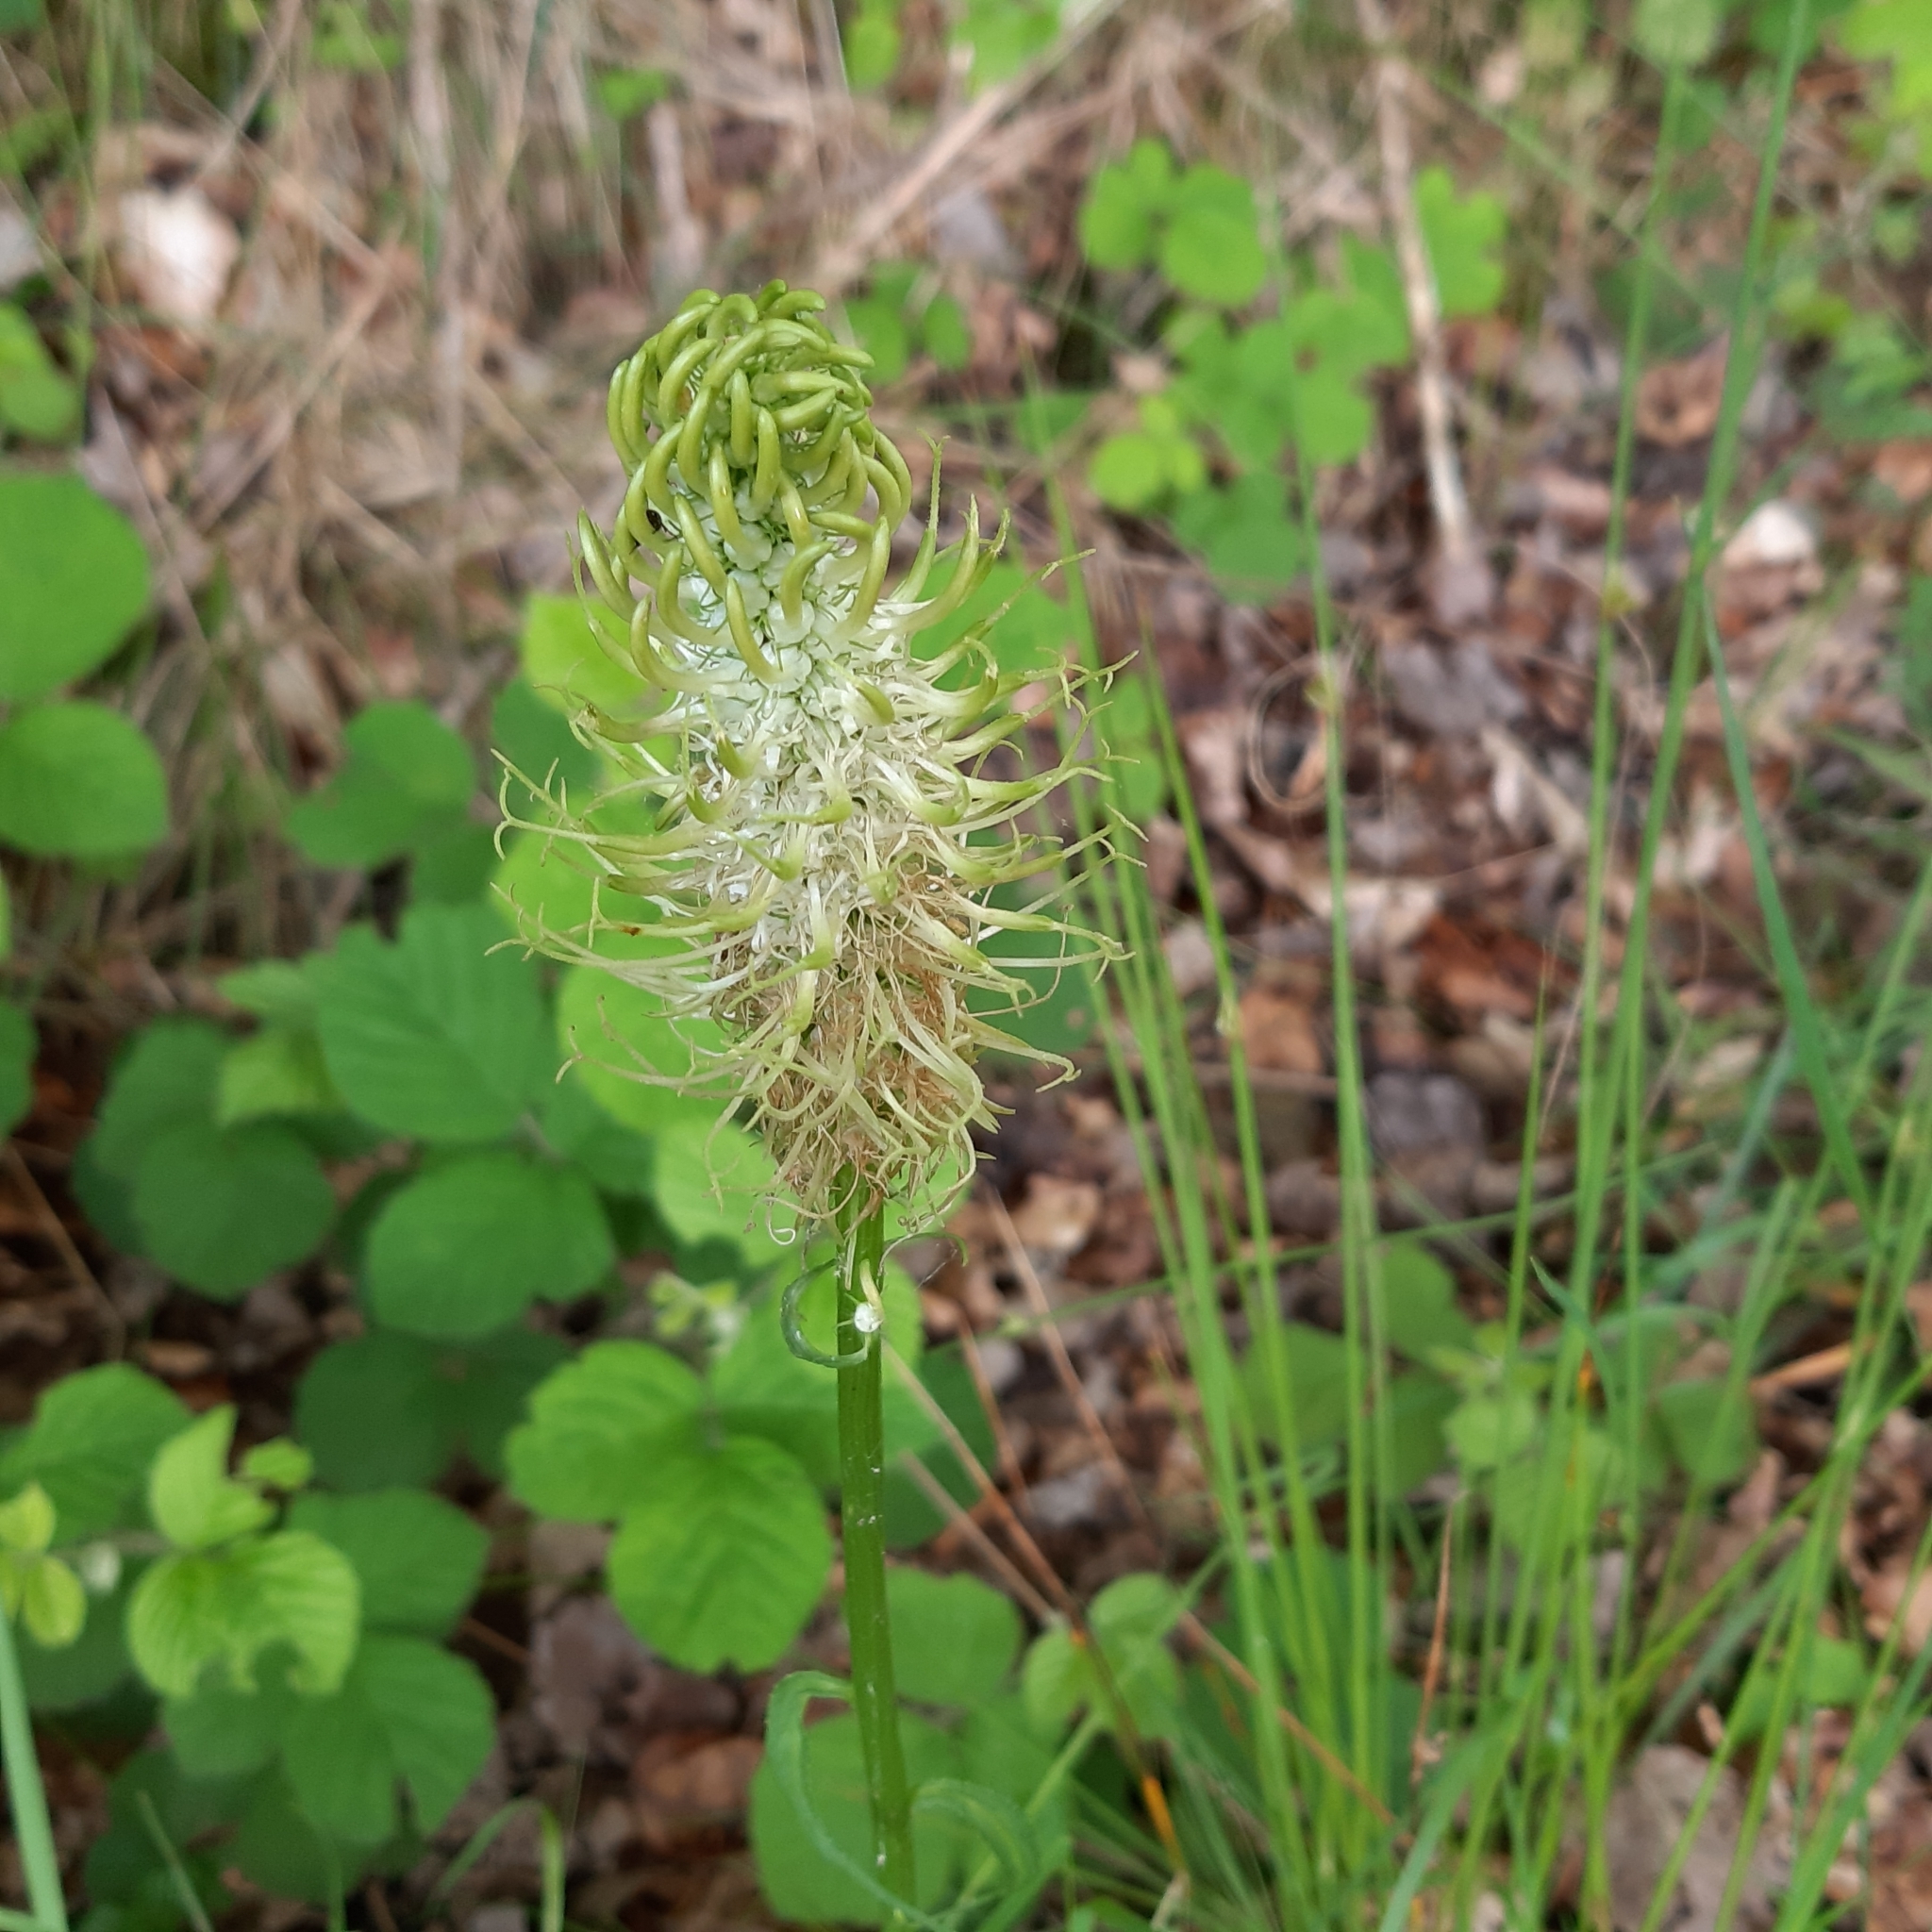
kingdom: Plantae
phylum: Tracheophyta
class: Magnoliopsida
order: Asterales
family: Campanulaceae
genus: Phyteuma
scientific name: Phyteuma spicatum
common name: Spiked rampion
